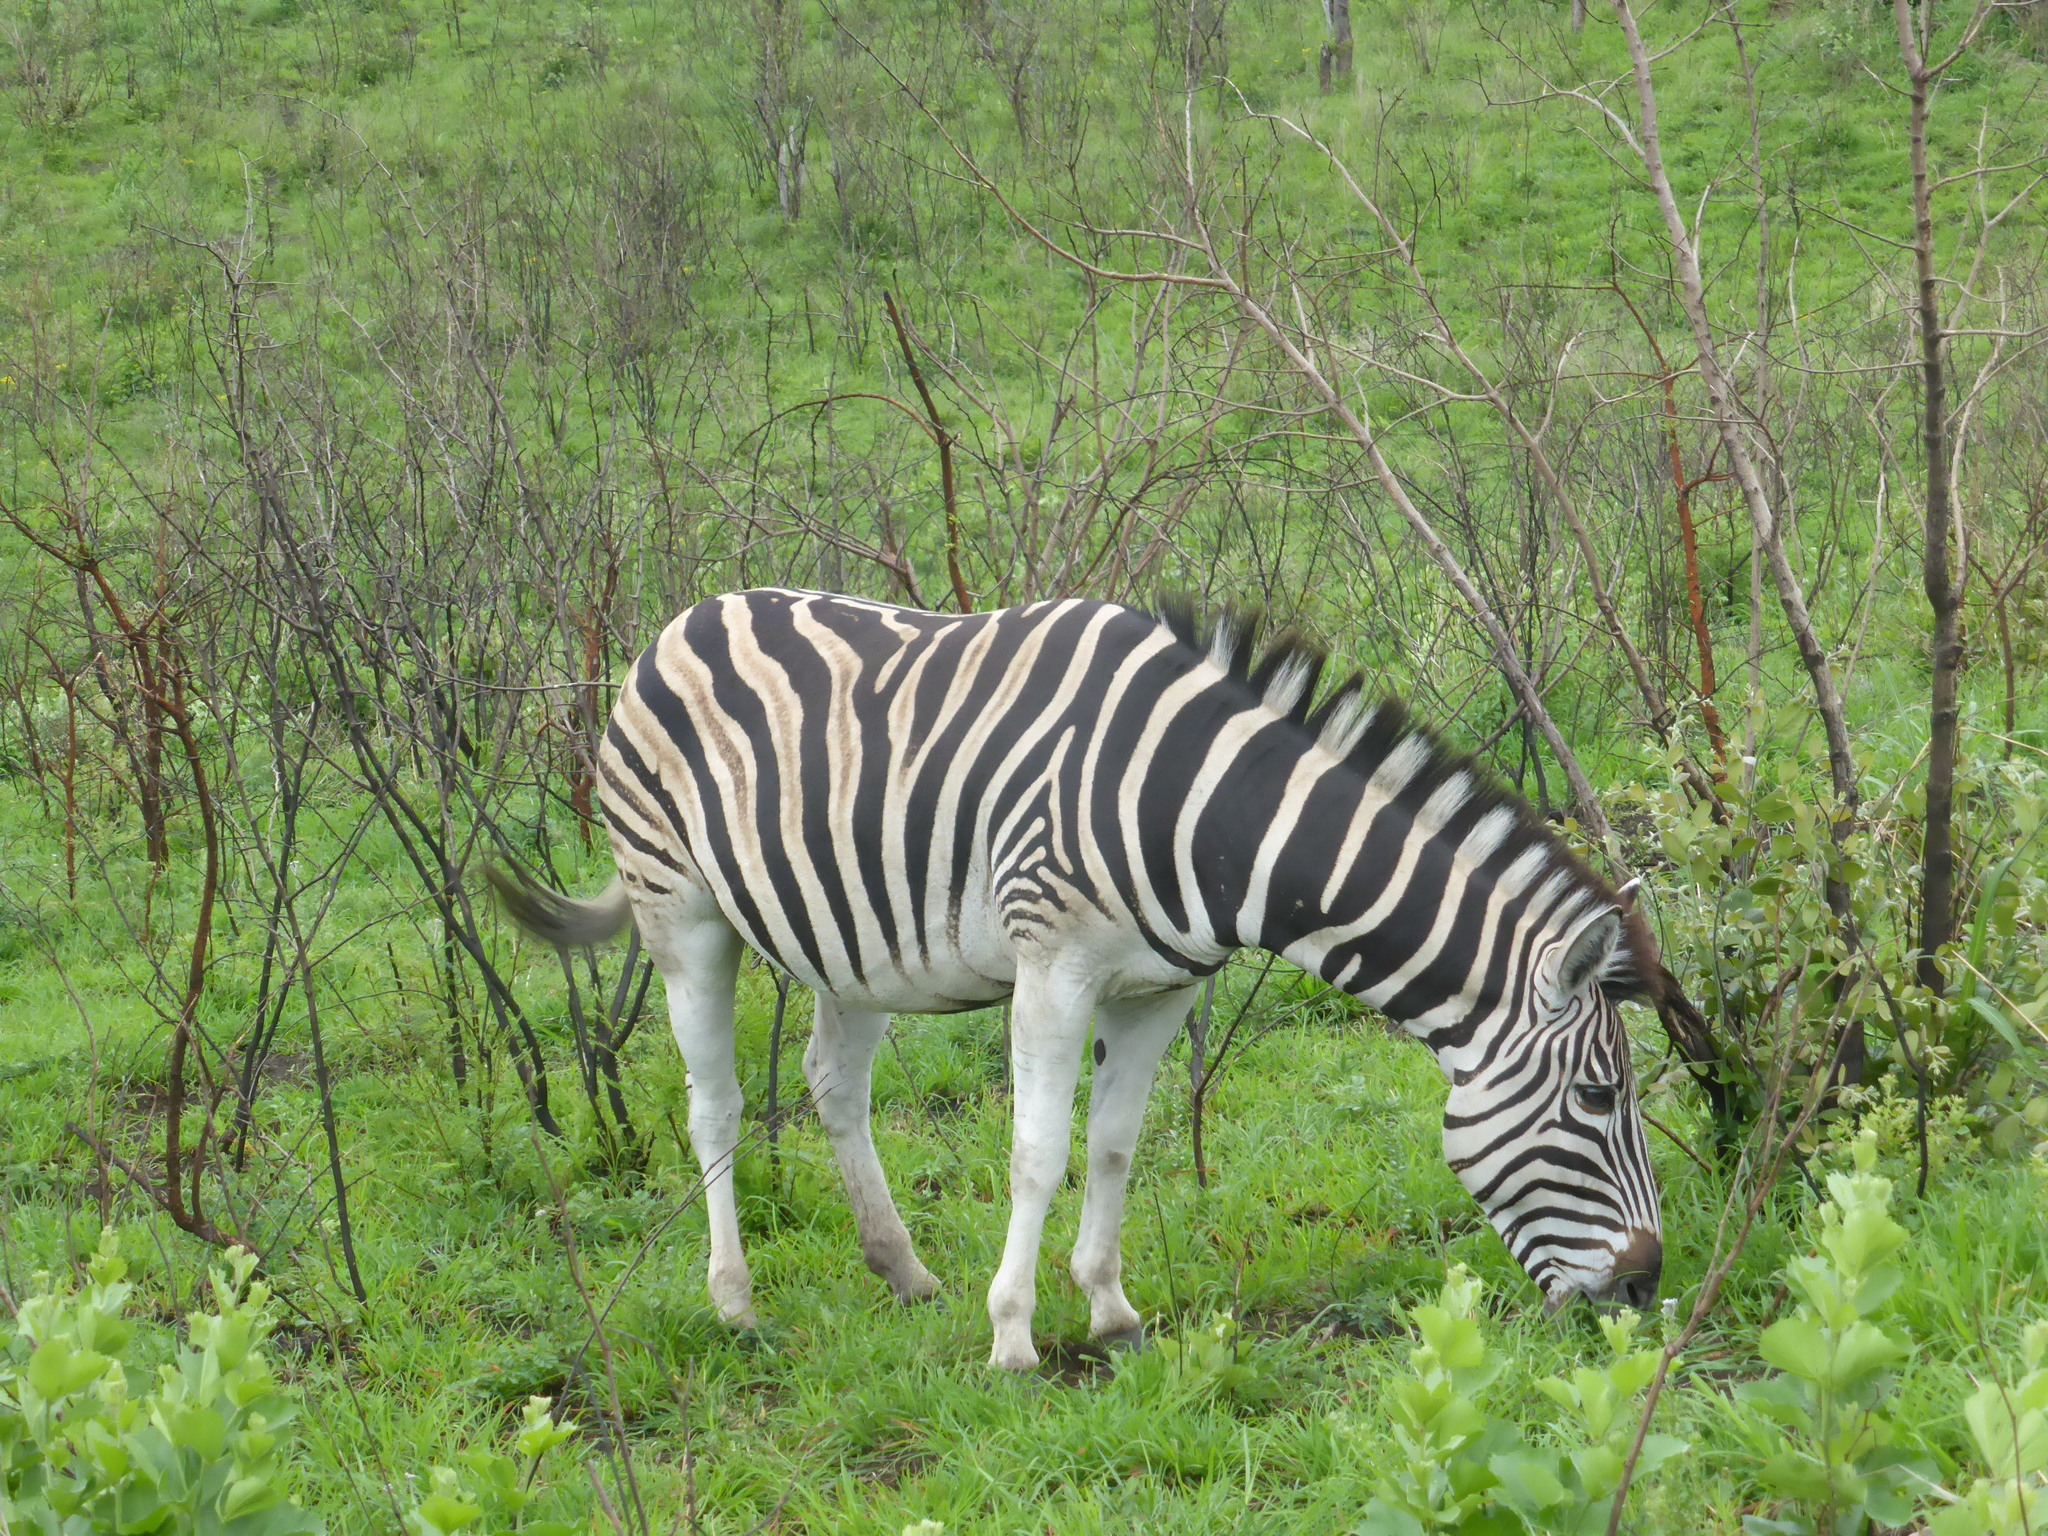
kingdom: Animalia
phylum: Chordata
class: Mammalia
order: Perissodactyla
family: Equidae
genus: Equus
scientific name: Equus quagga
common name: Plains zebra
